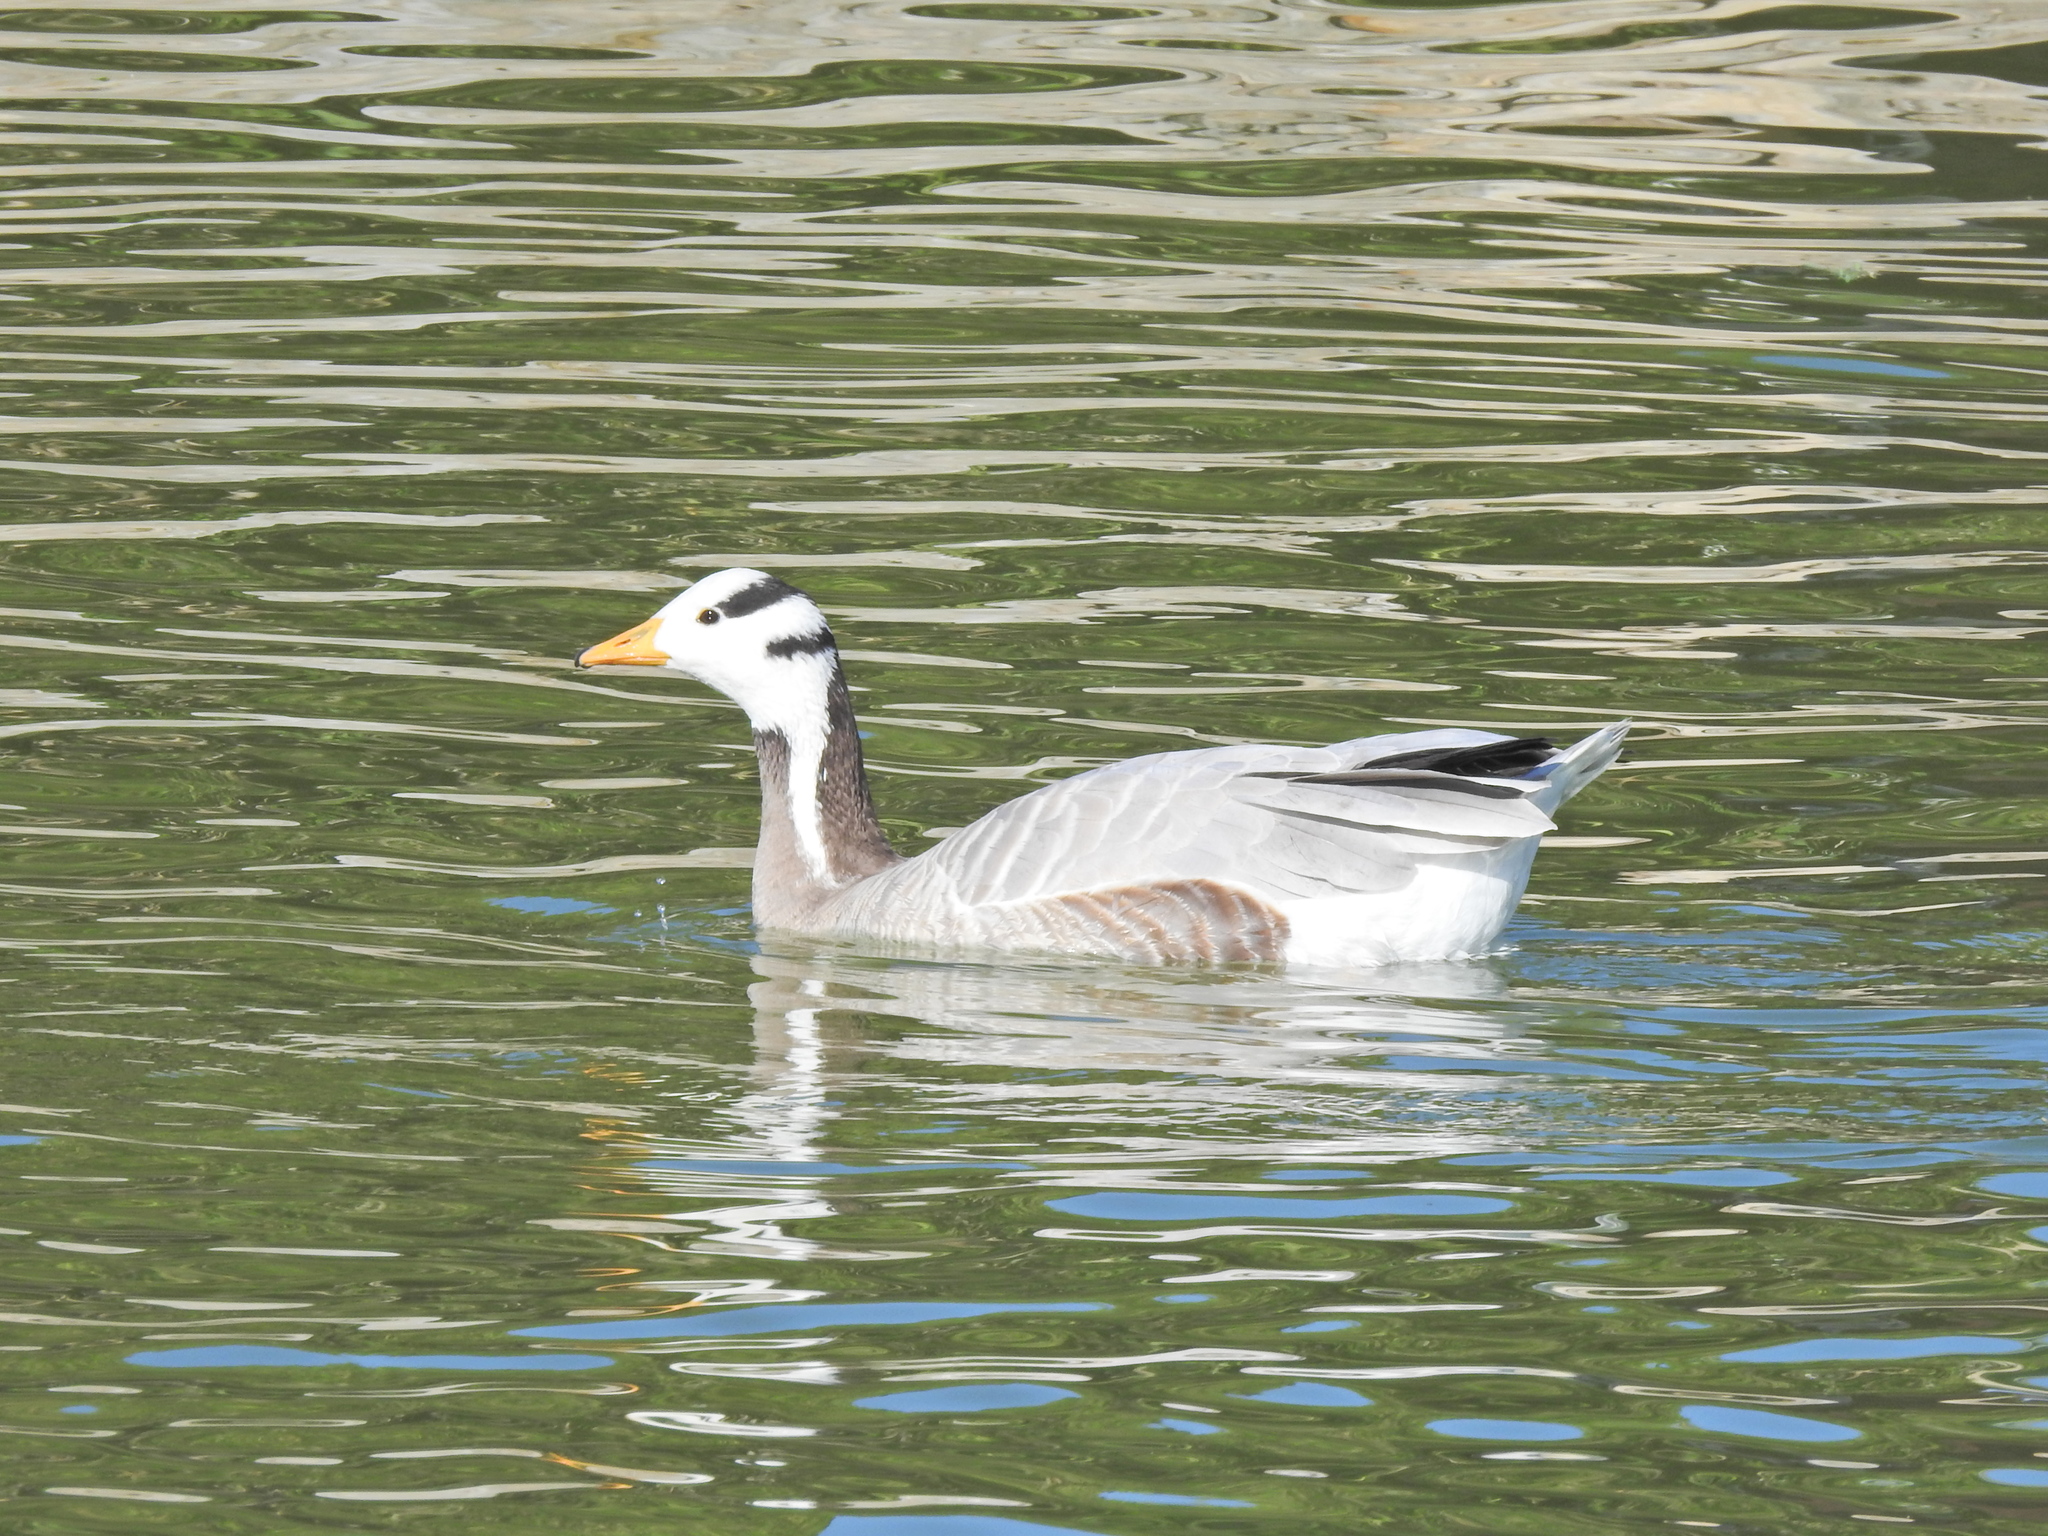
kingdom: Animalia
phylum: Chordata
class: Aves
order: Anseriformes
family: Anatidae
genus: Anser
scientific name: Anser indicus
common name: Bar-headed goose
